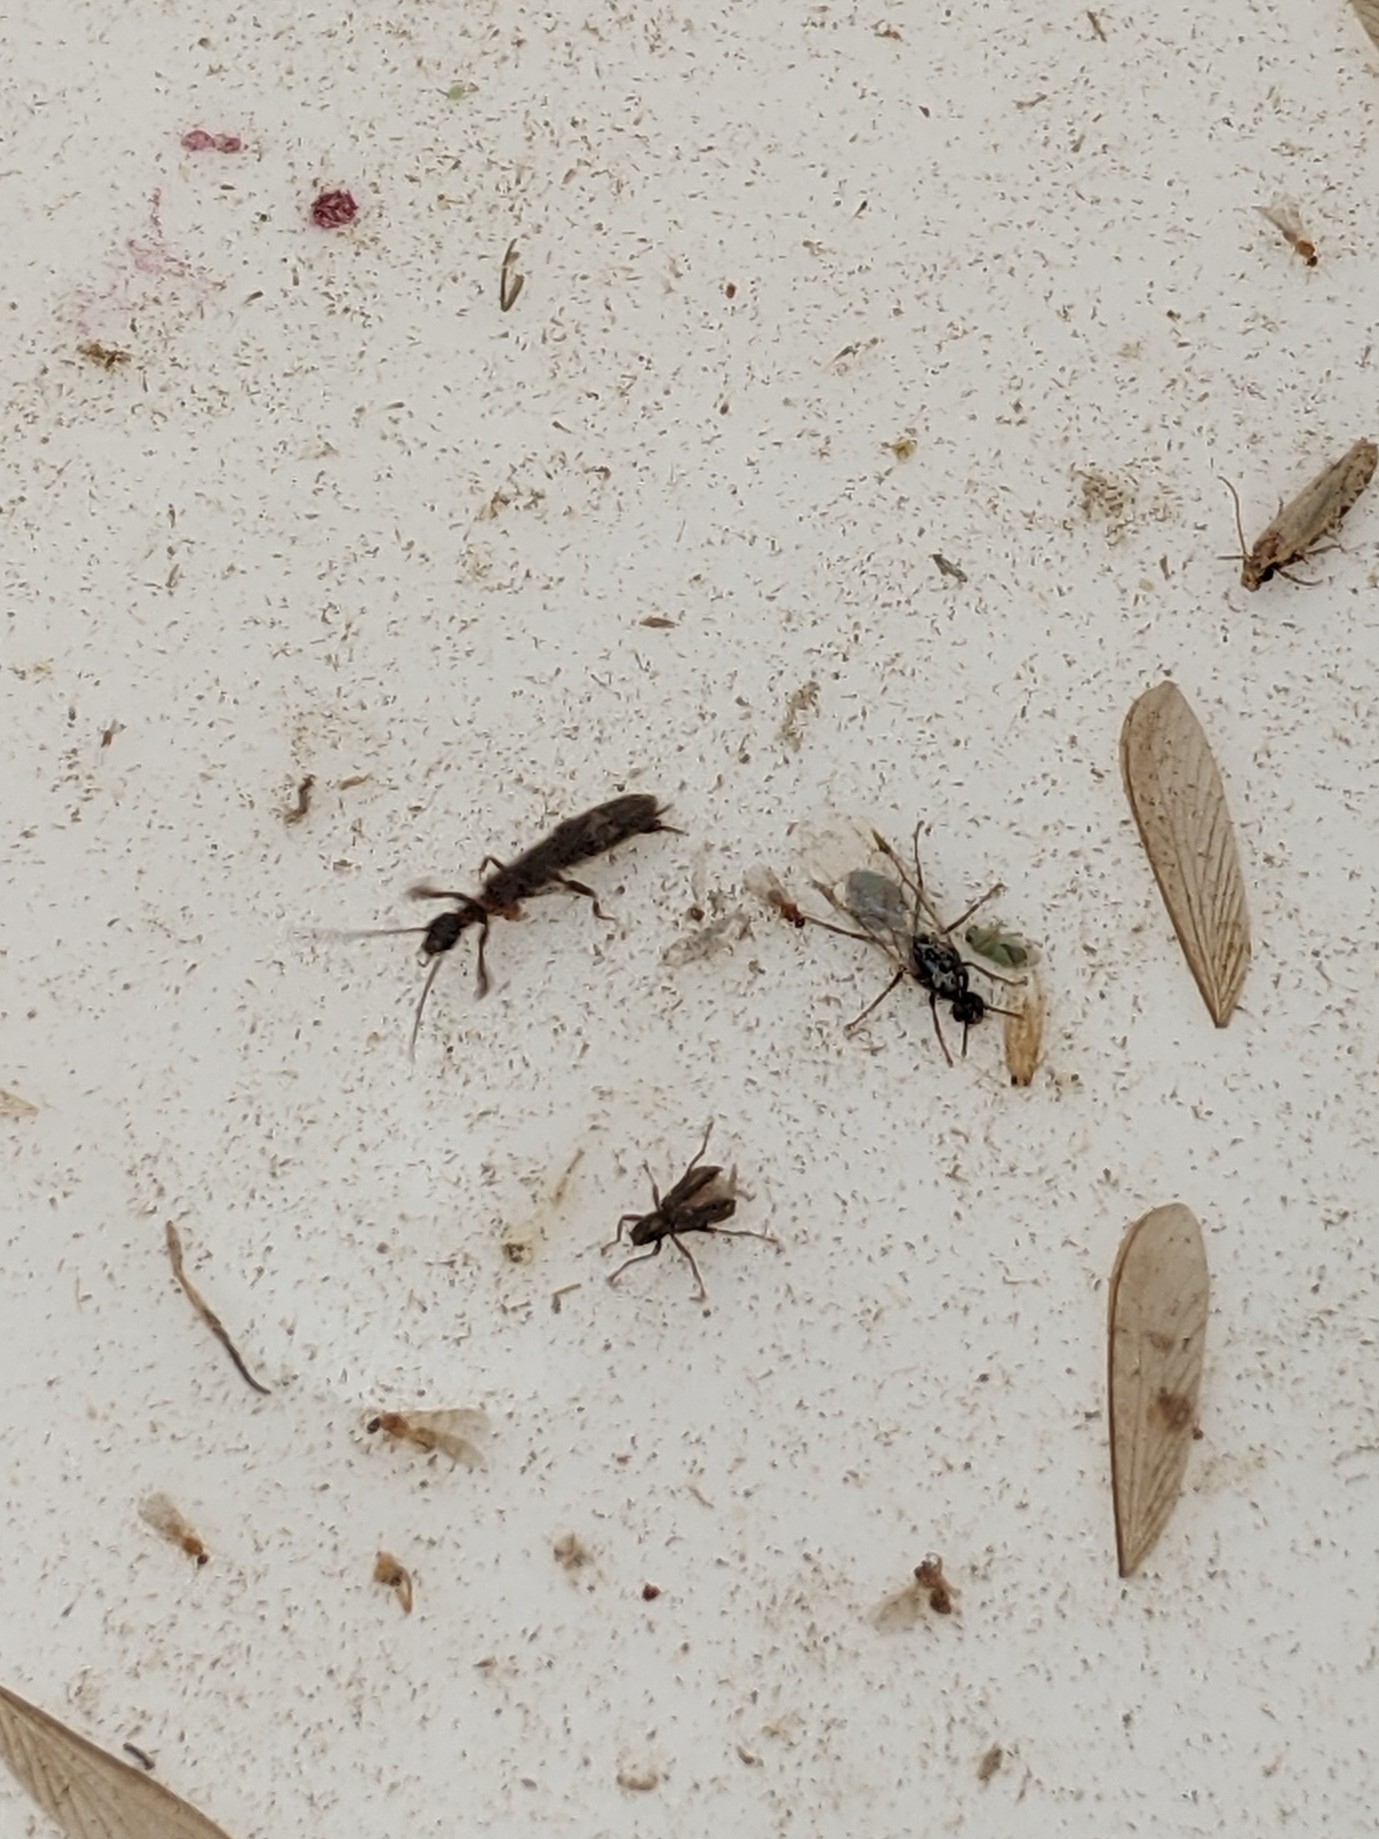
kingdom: Animalia
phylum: Arthropoda
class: Insecta
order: Embioptera
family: Oligotomidae
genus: Oligotoma
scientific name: Oligotoma nigra
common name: Black webspinner
